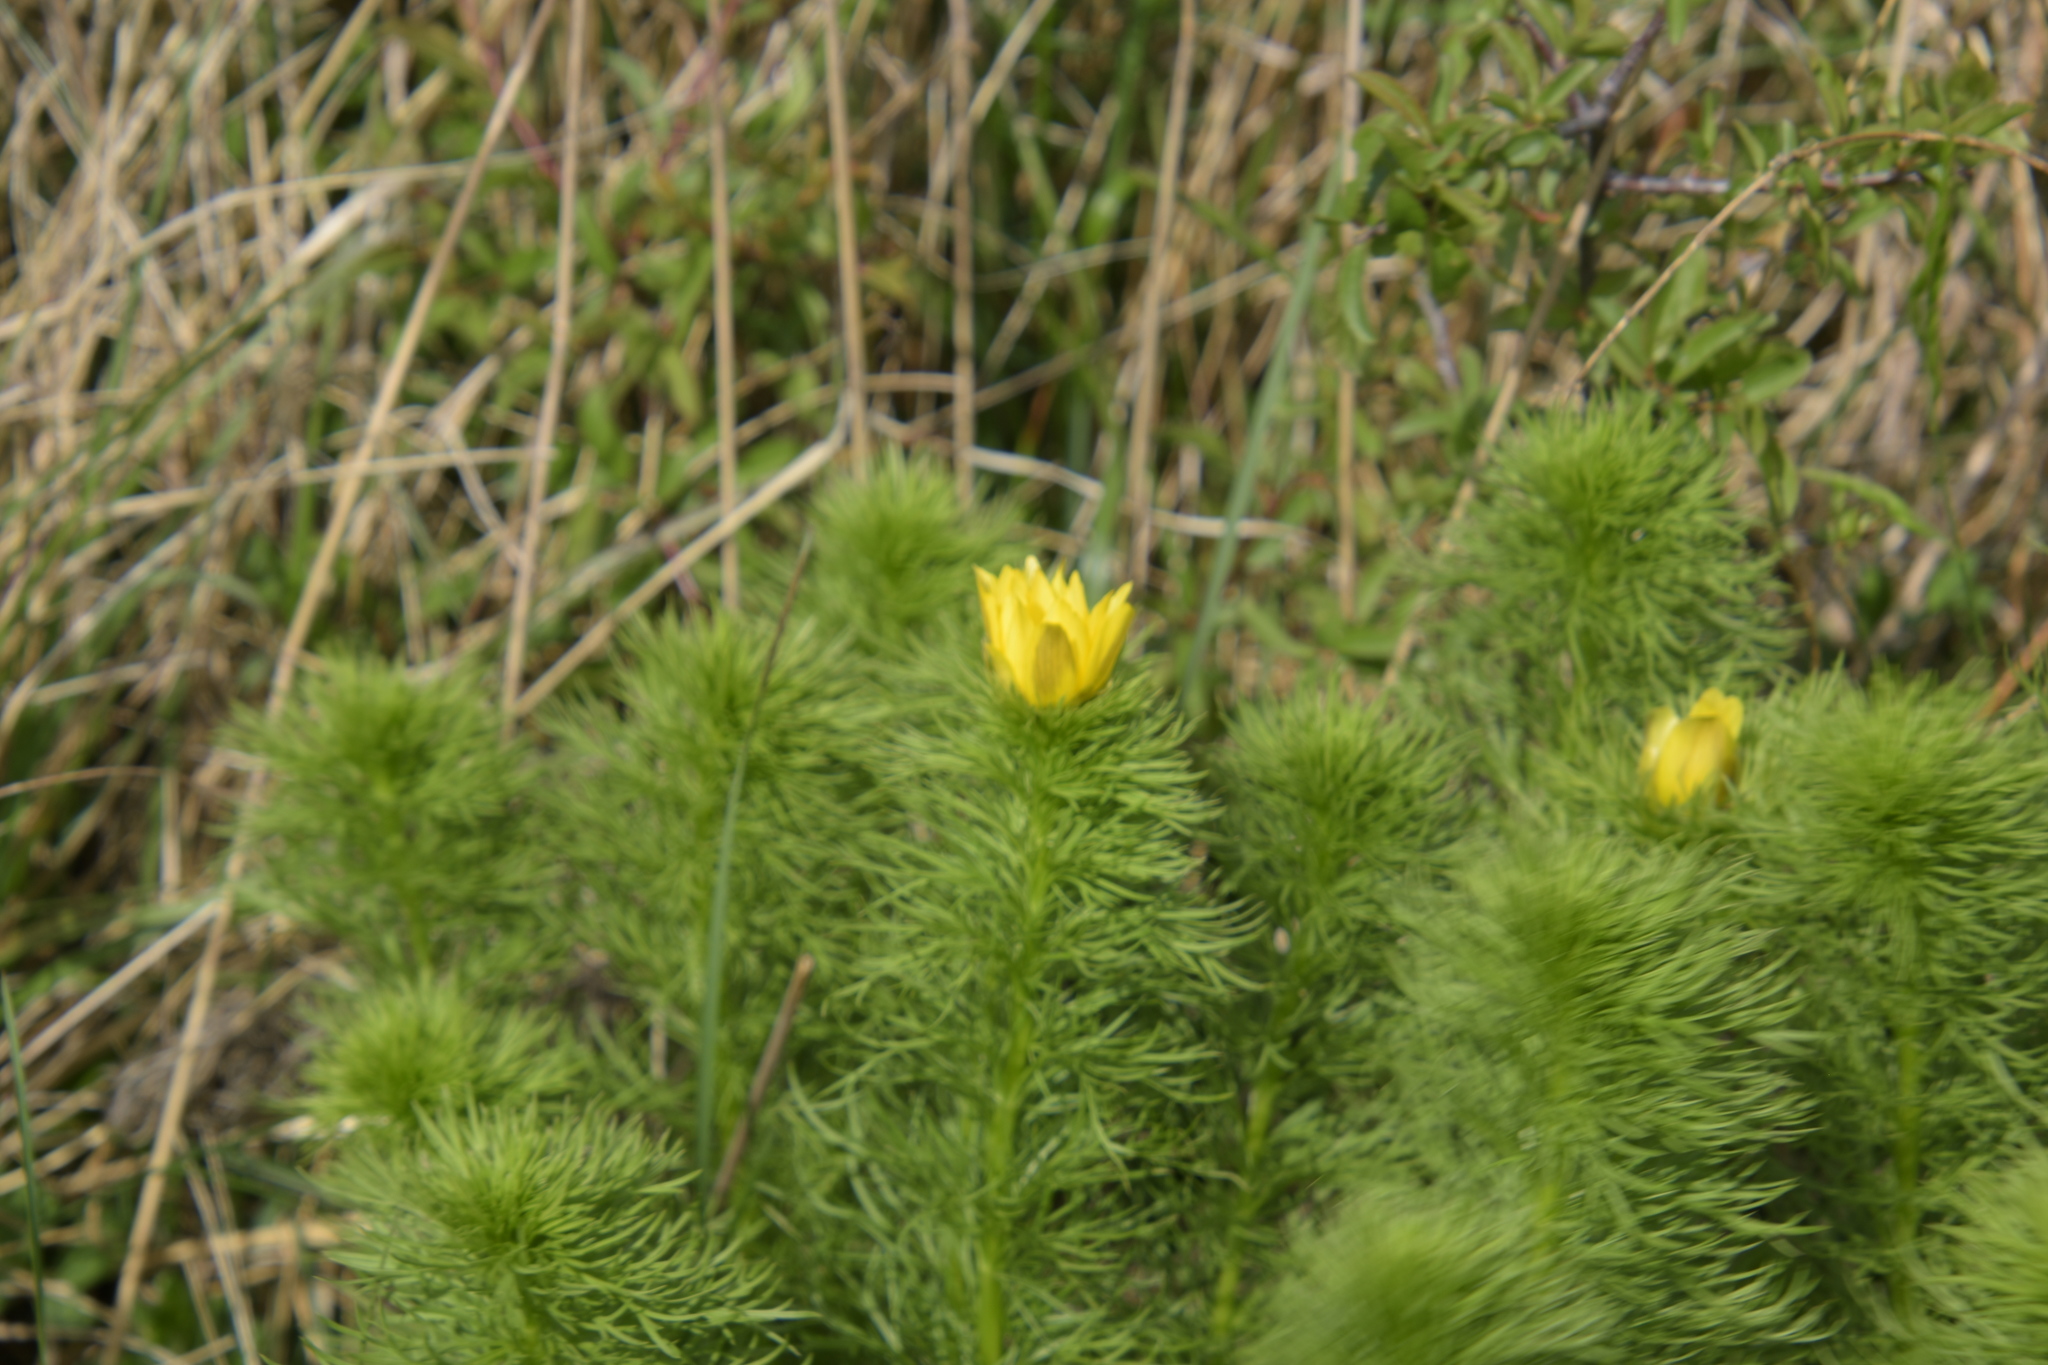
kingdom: Plantae
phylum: Tracheophyta
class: Magnoliopsida
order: Ranunculales
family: Ranunculaceae
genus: Adonis
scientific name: Adonis vernalis
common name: Yellow pheasants-eye
